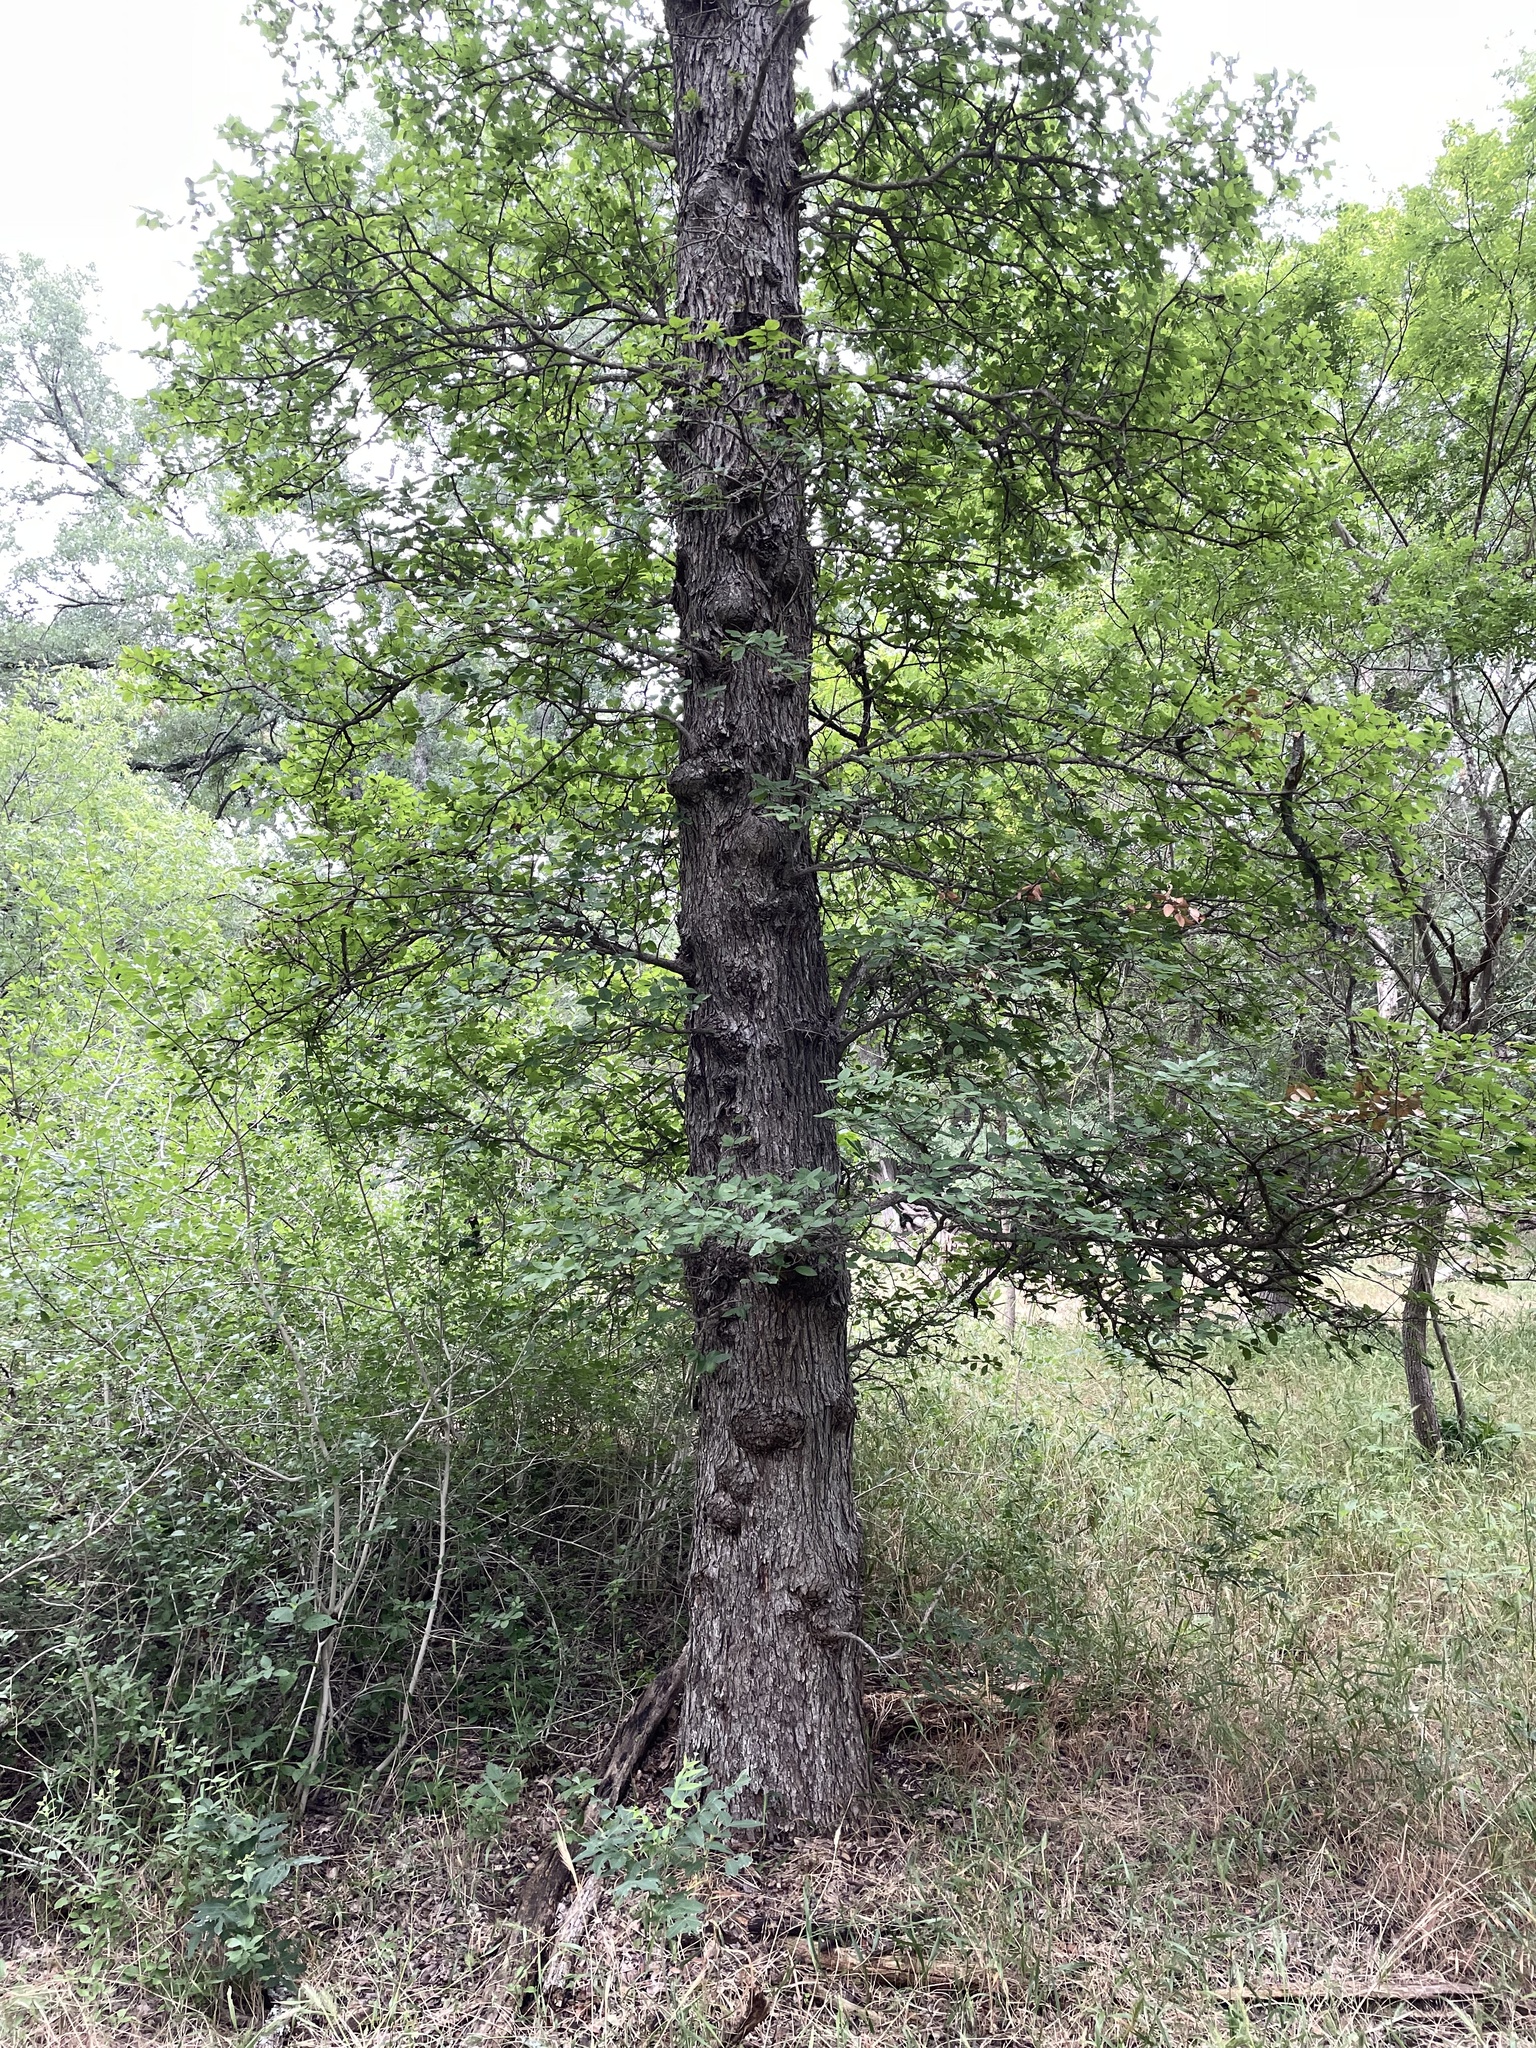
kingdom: Plantae
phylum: Tracheophyta
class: Magnoliopsida
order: Rosales
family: Ulmaceae
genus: Ulmus
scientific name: Ulmus crassifolia
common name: Basket elm
